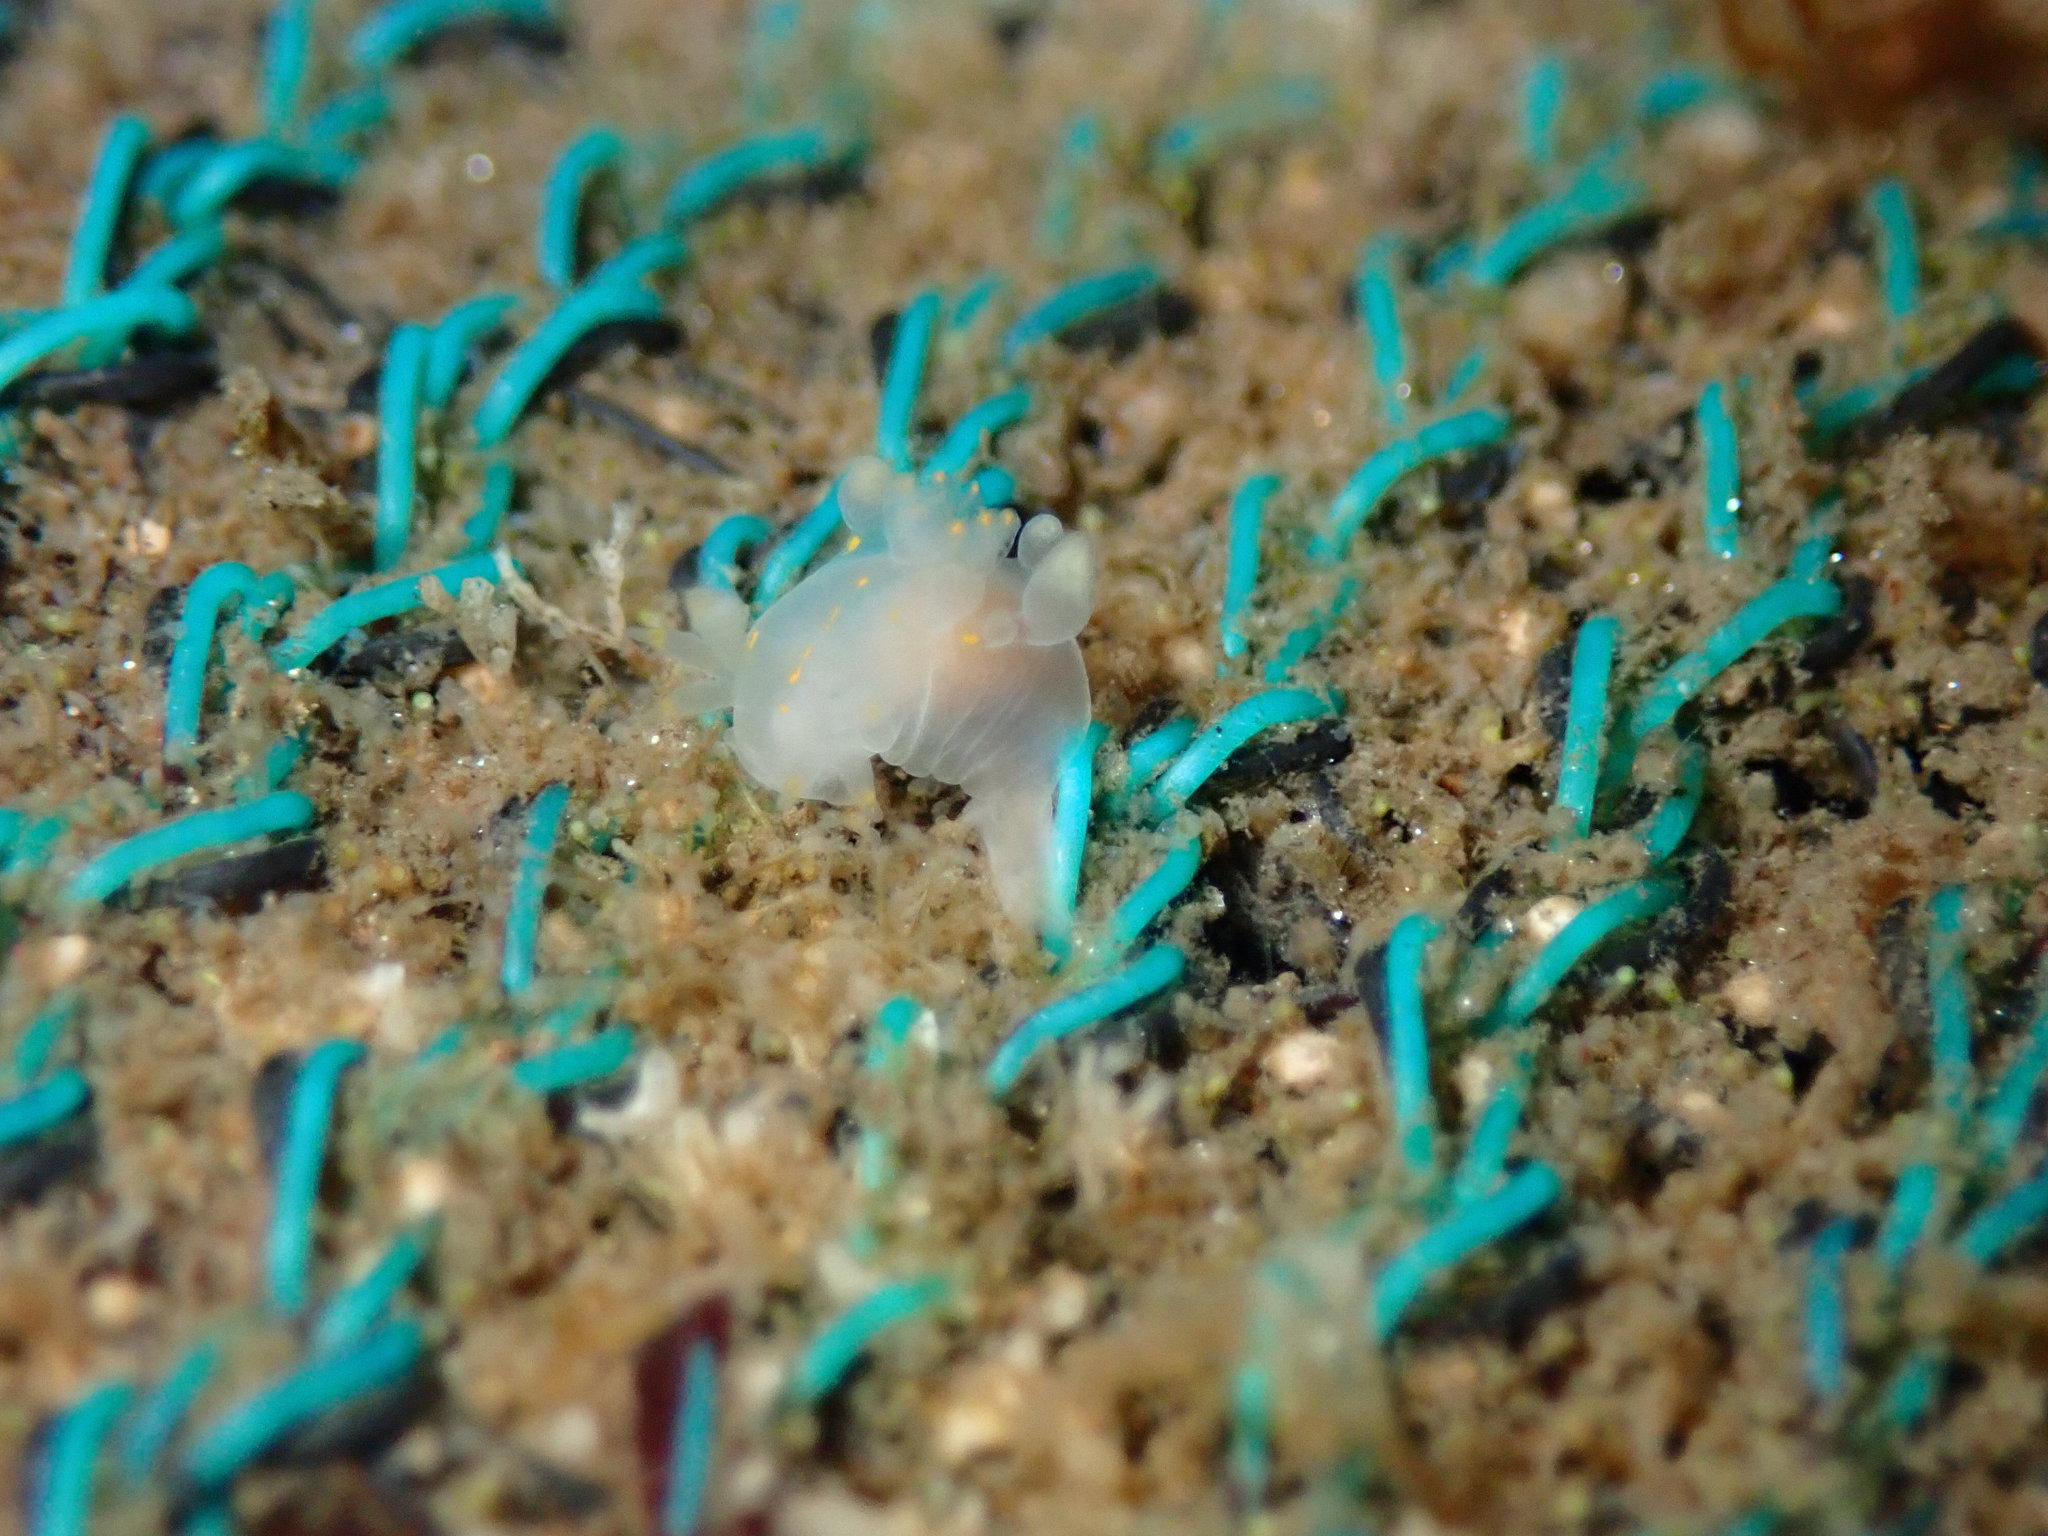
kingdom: Animalia
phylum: Mollusca
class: Gastropoda
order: Nudibranchia
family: Goniodorididae
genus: Ancula
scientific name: Ancula pacifica
